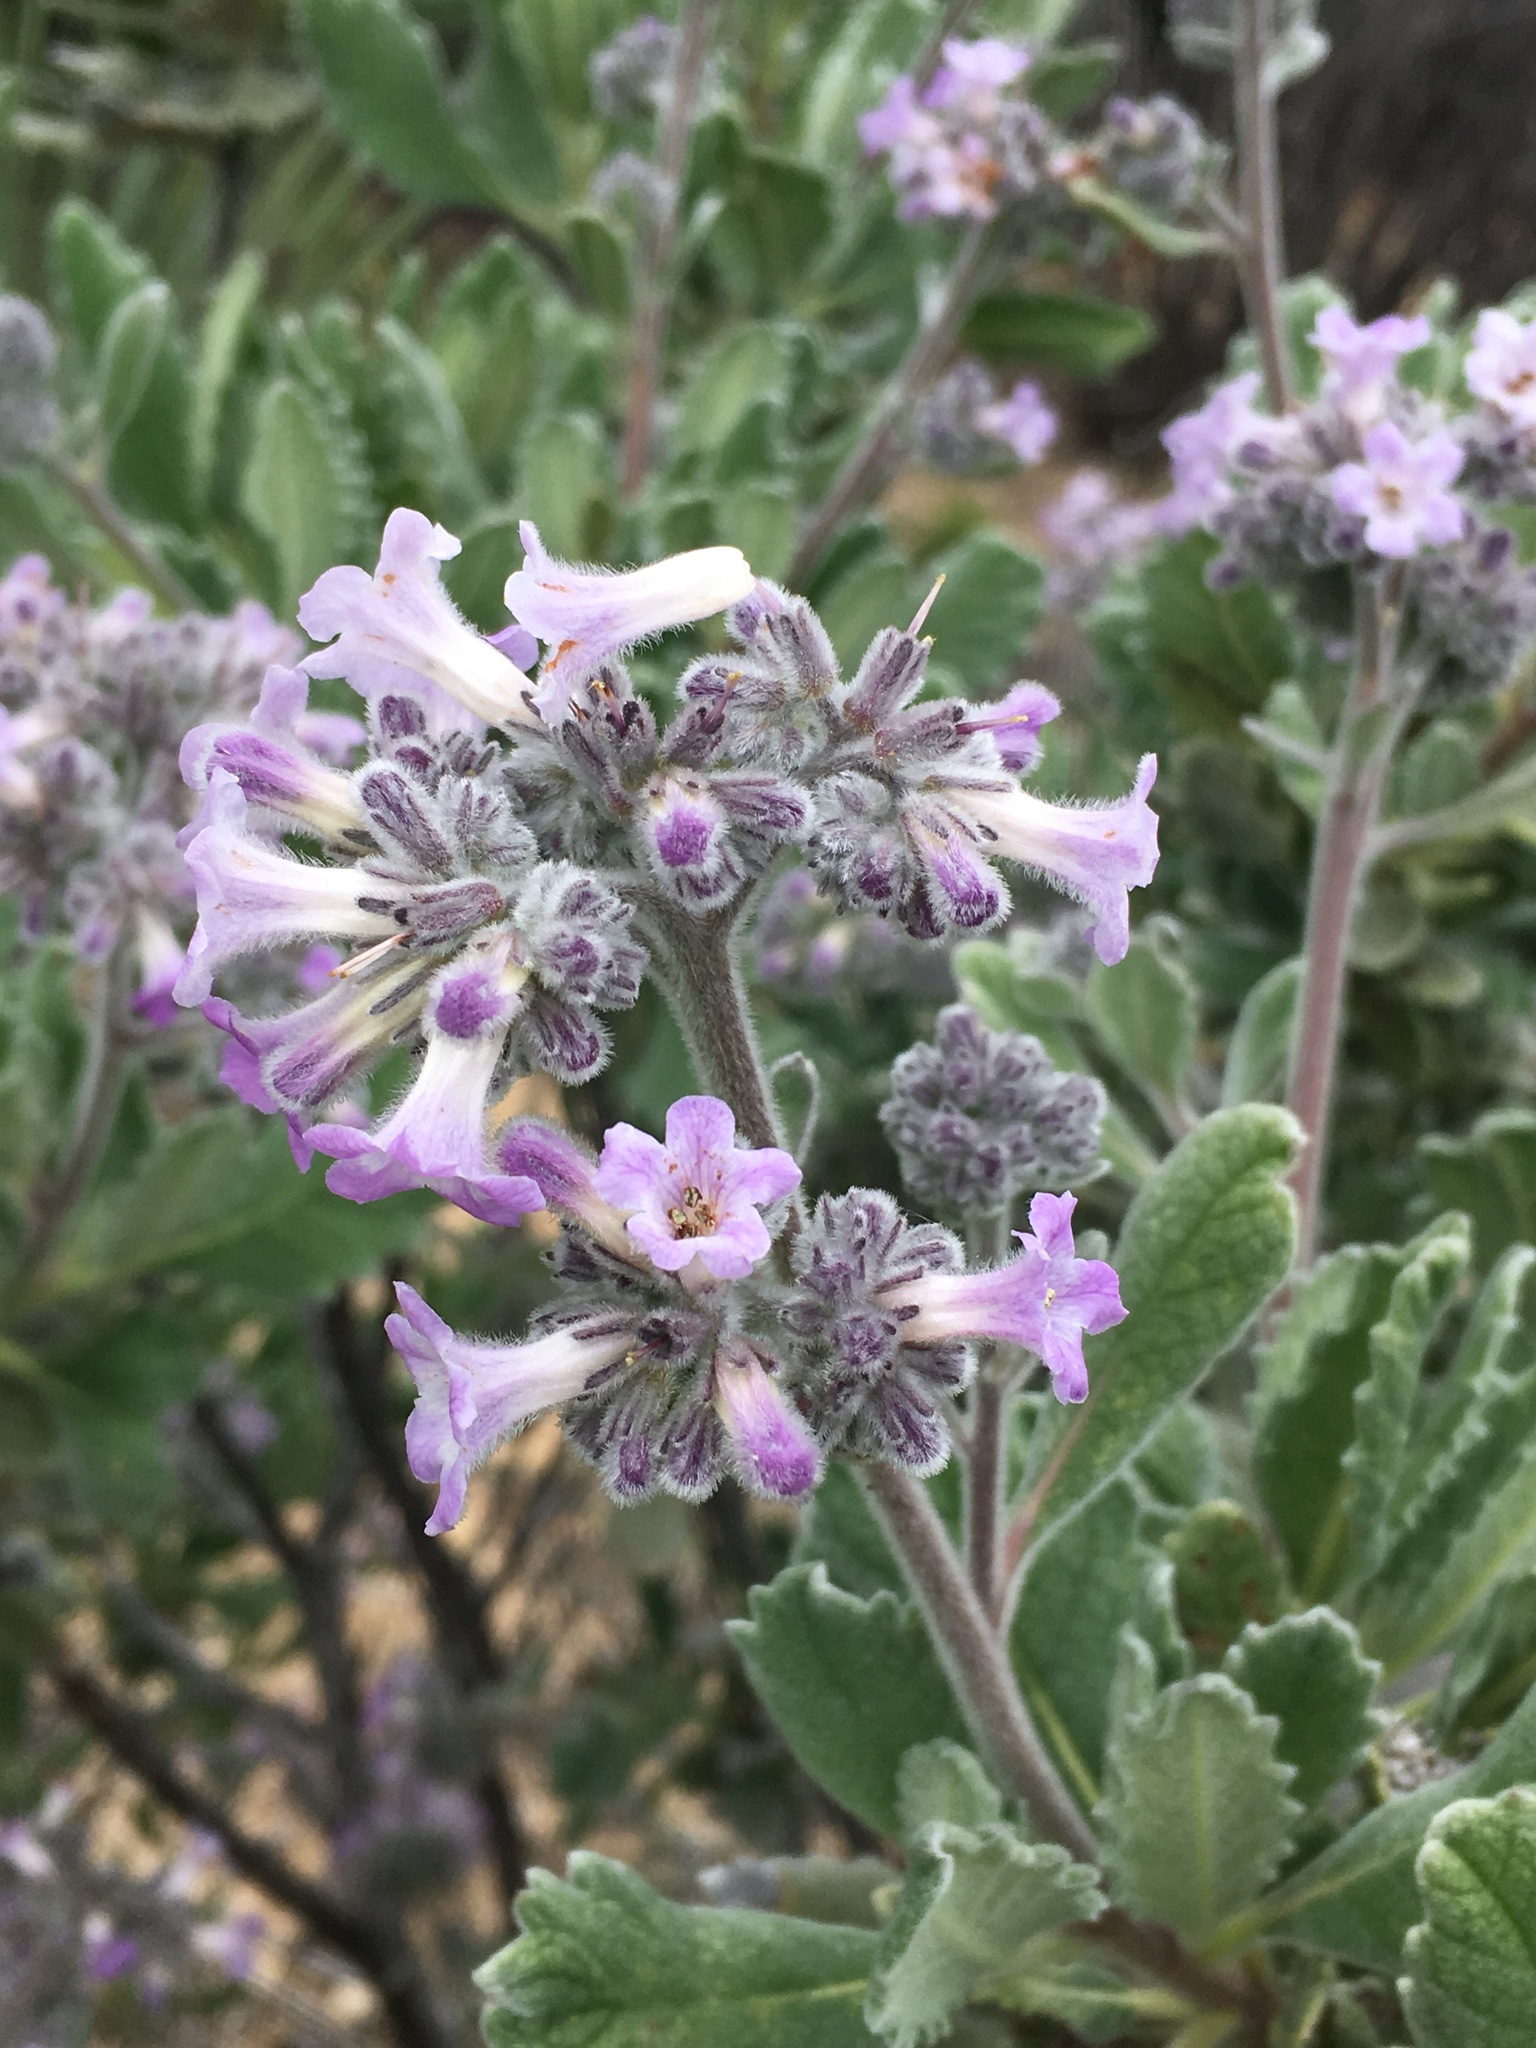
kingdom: Plantae
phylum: Tracheophyta
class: Magnoliopsida
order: Boraginales
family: Namaceae
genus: Eriodictyon
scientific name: Eriodictyon crassifolium
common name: Thick-leaf yerba-santa
